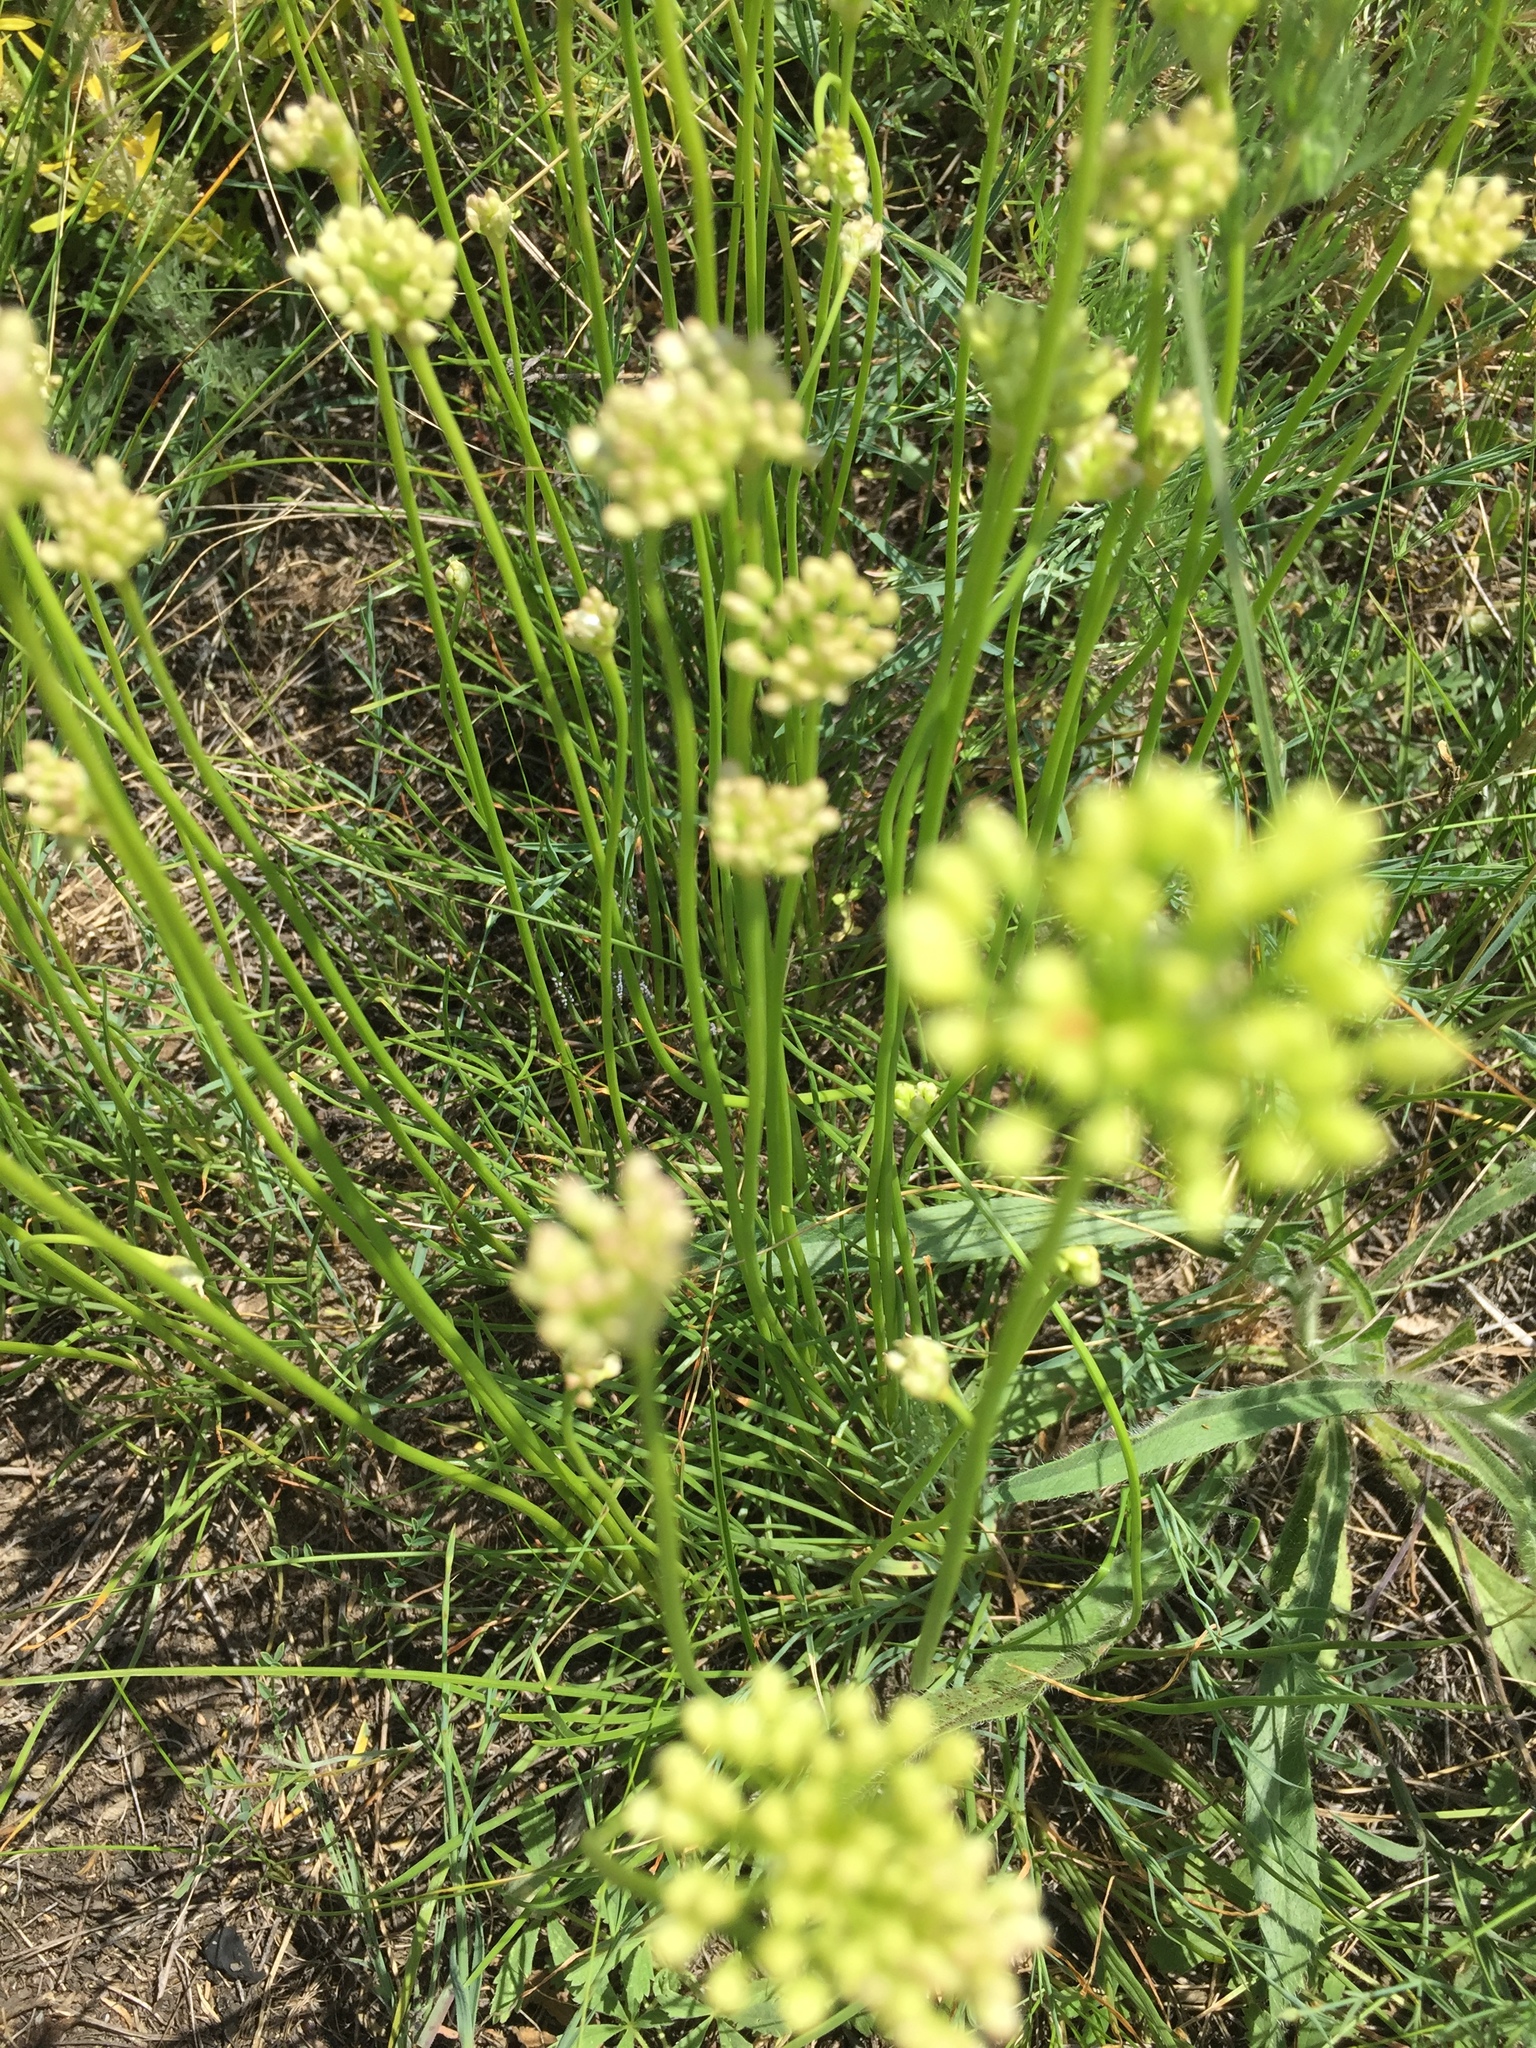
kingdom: Plantae
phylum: Tracheophyta
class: Liliopsida
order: Asparagales
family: Amaryllidaceae
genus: Allium
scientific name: Allium flavescens
